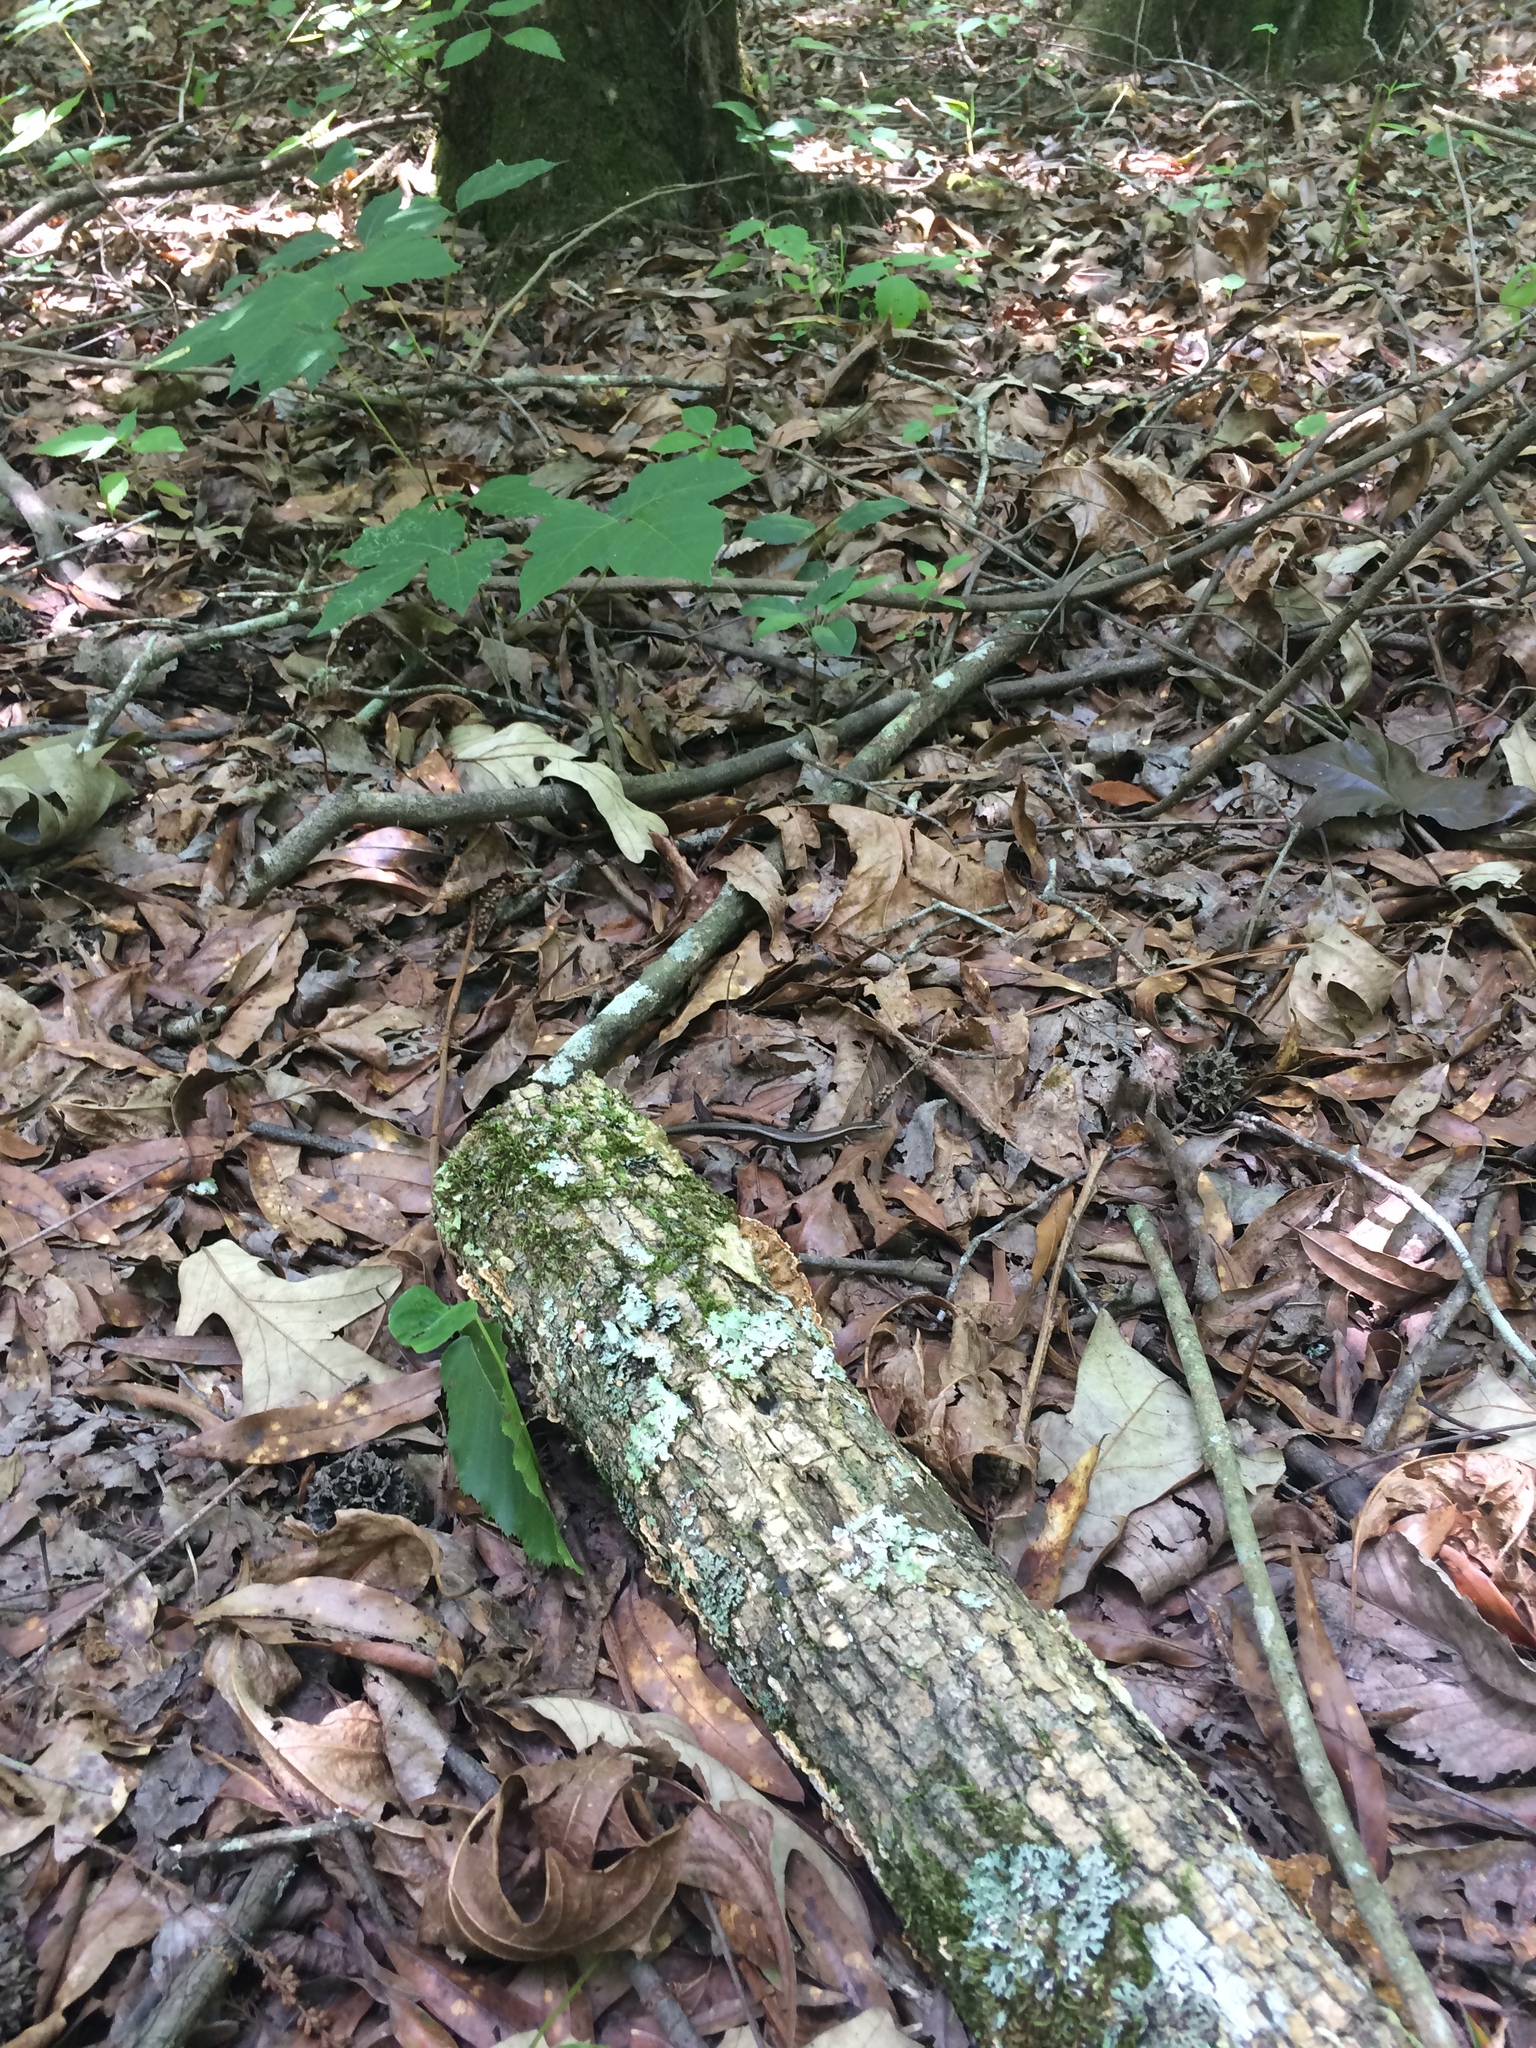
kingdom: Animalia
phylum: Chordata
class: Squamata
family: Scincidae
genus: Scincella
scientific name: Scincella lateralis
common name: Ground skink
